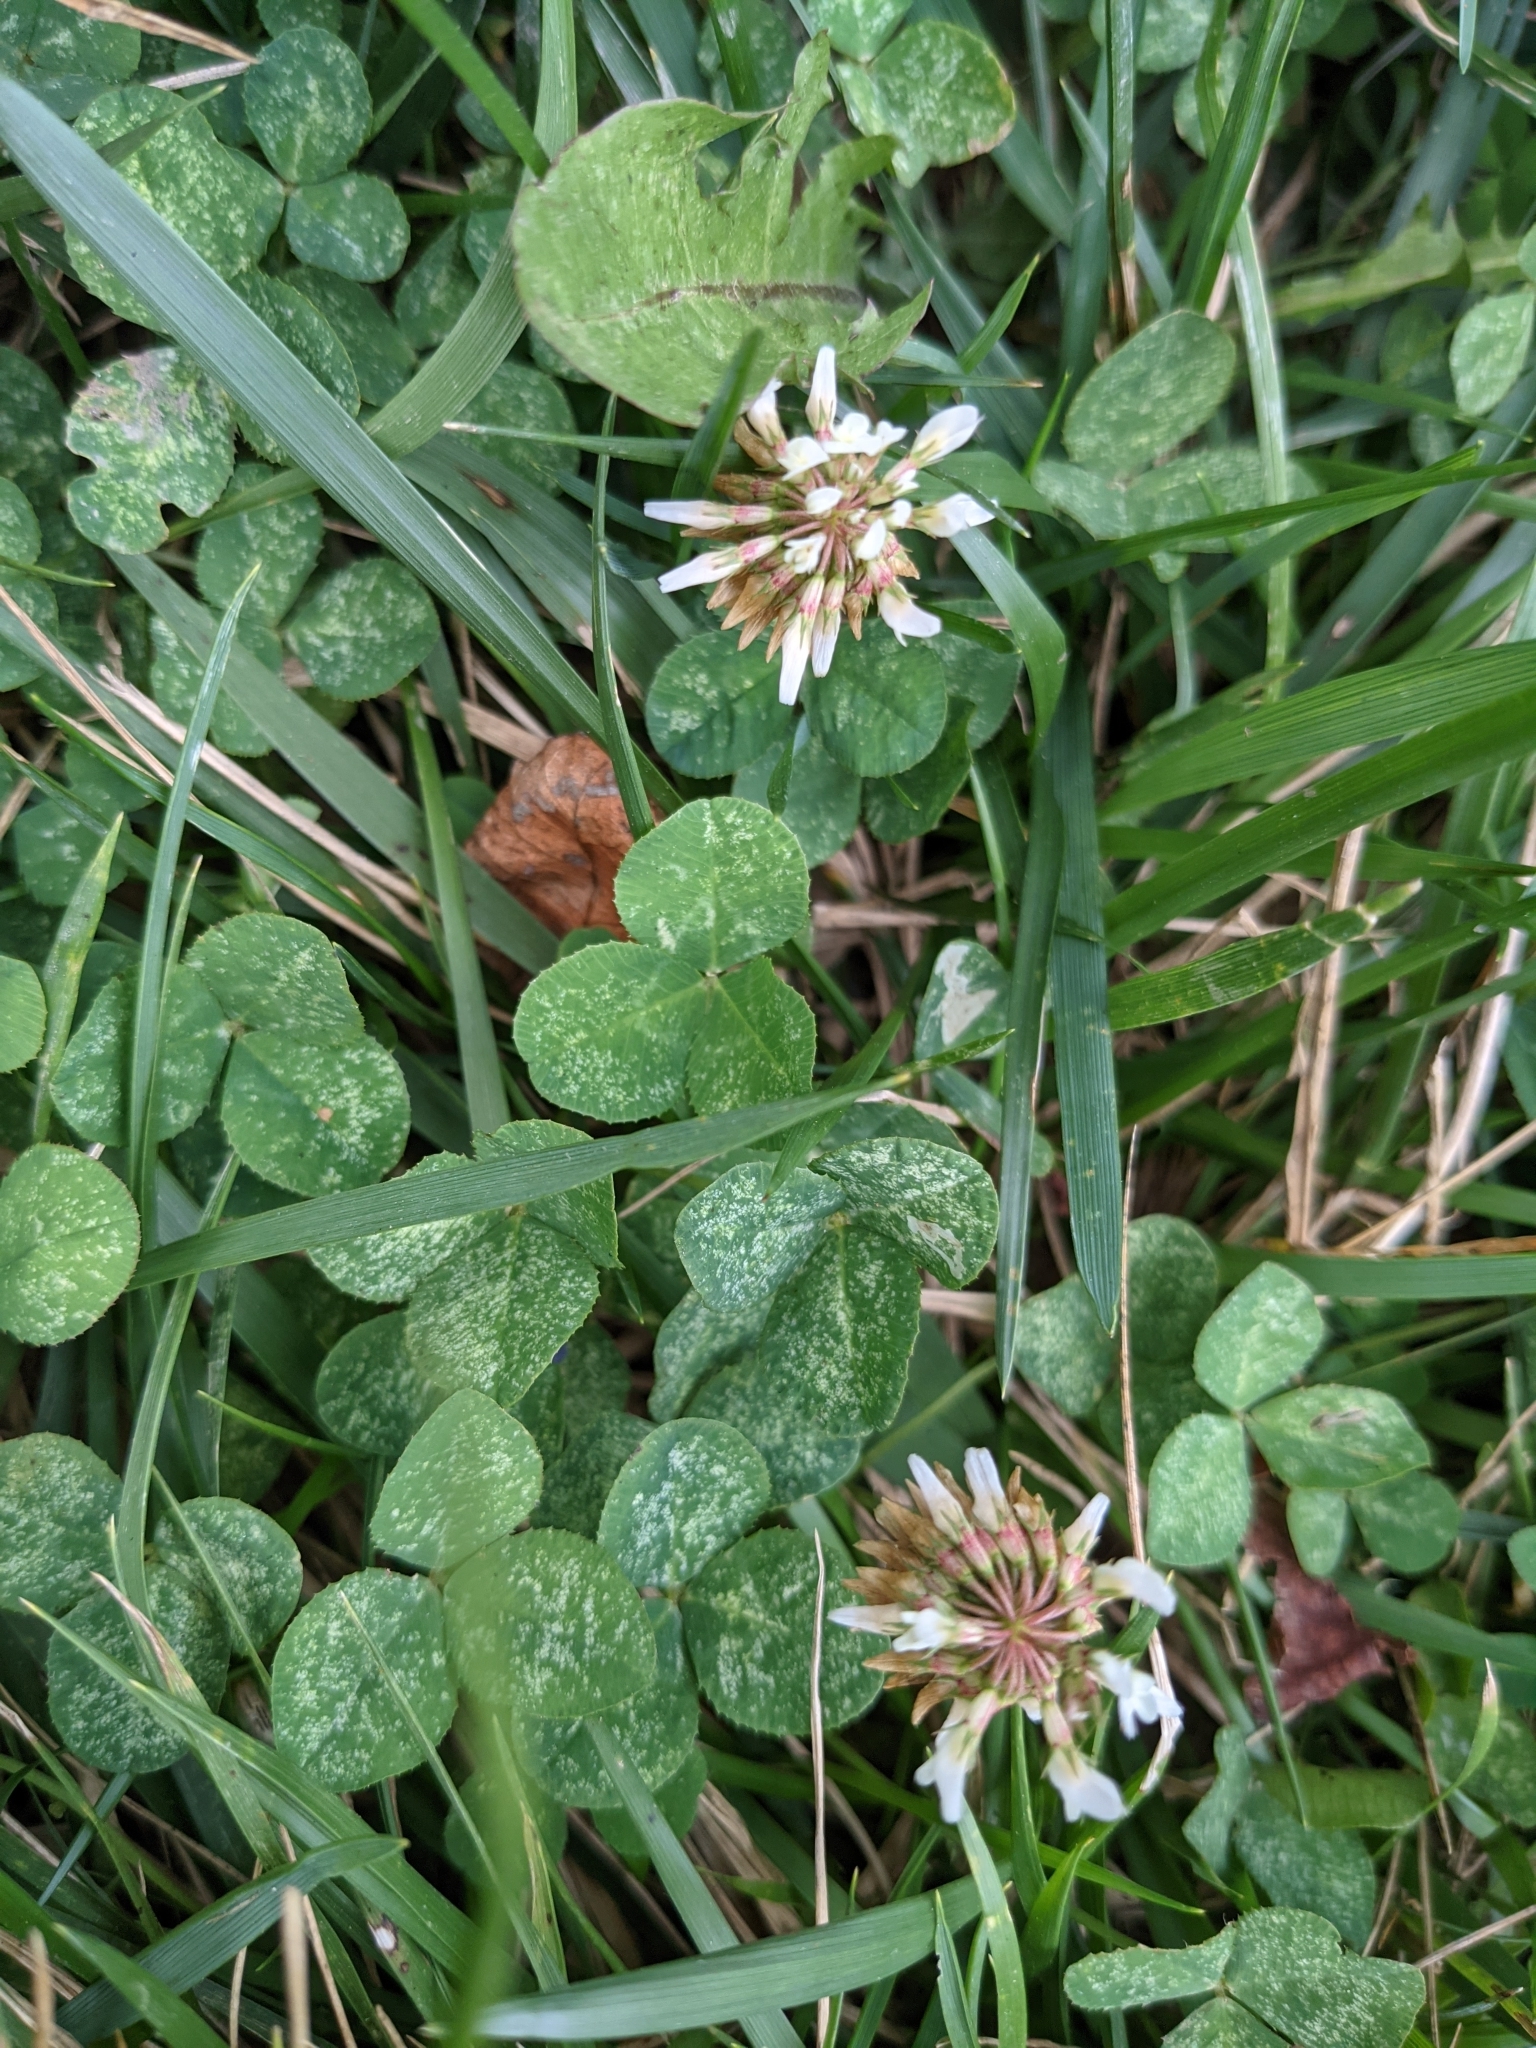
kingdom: Plantae
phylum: Tracheophyta
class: Magnoliopsida
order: Fabales
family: Fabaceae
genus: Trifolium
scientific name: Trifolium repens
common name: White clover
